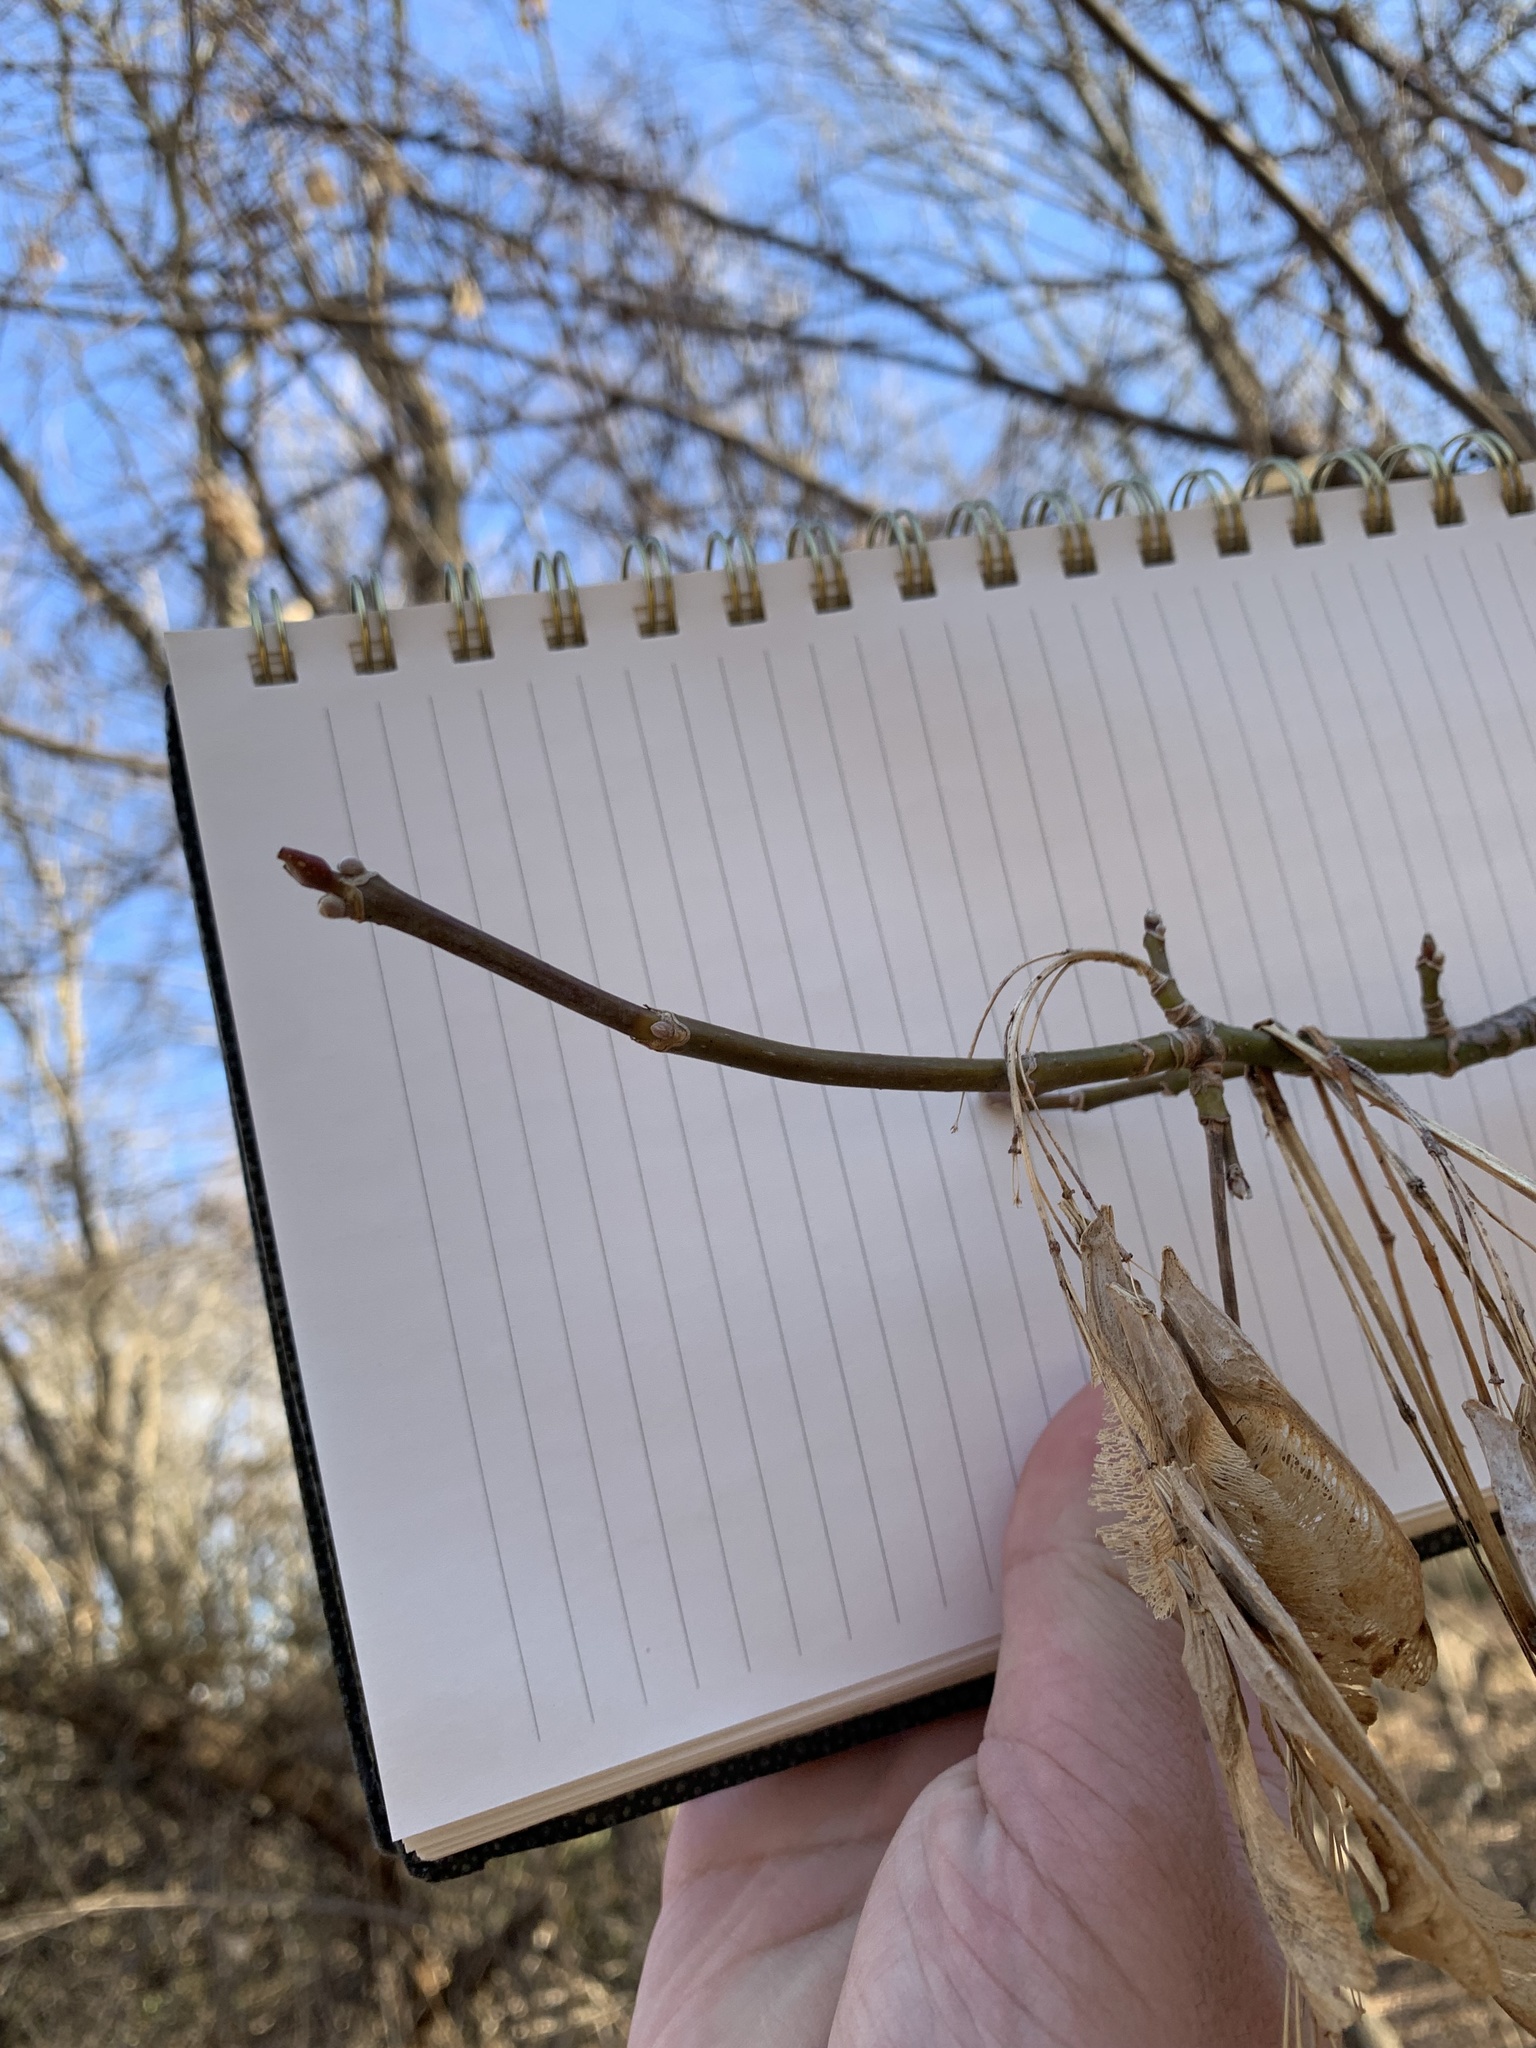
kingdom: Plantae
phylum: Tracheophyta
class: Magnoliopsida
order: Sapindales
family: Sapindaceae
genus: Acer
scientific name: Acer negundo
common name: Ashleaf maple
